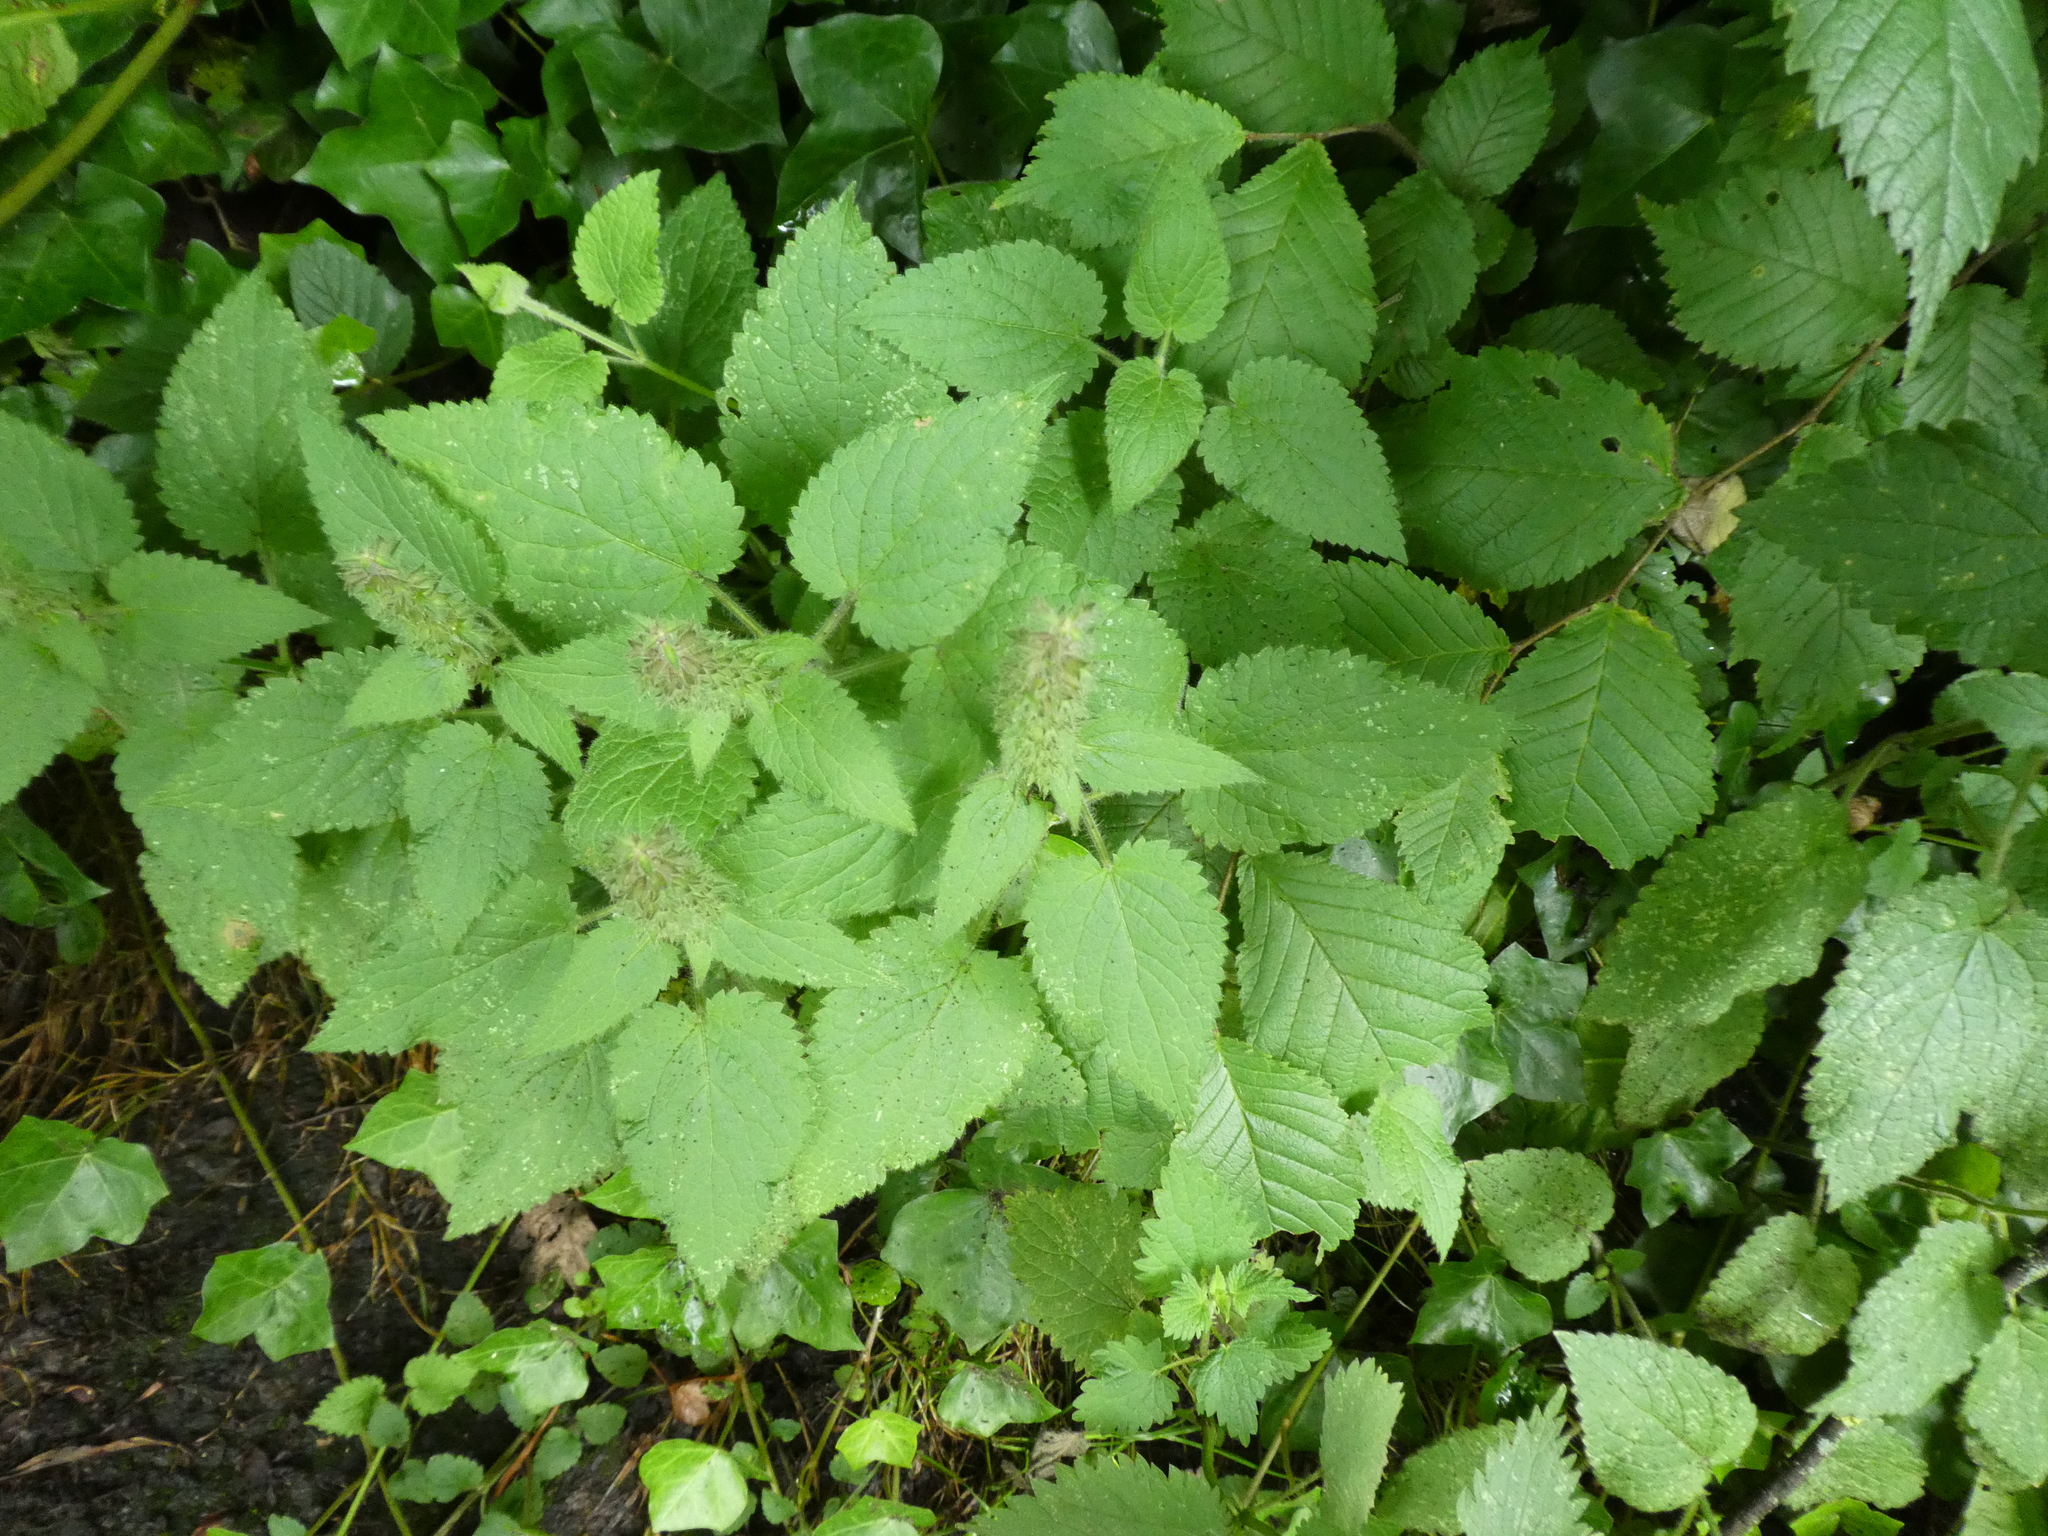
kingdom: Plantae
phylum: Tracheophyta
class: Magnoliopsida
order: Lamiales
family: Lamiaceae
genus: Stachys
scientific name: Stachys sylvatica
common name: Hedge woundwort
